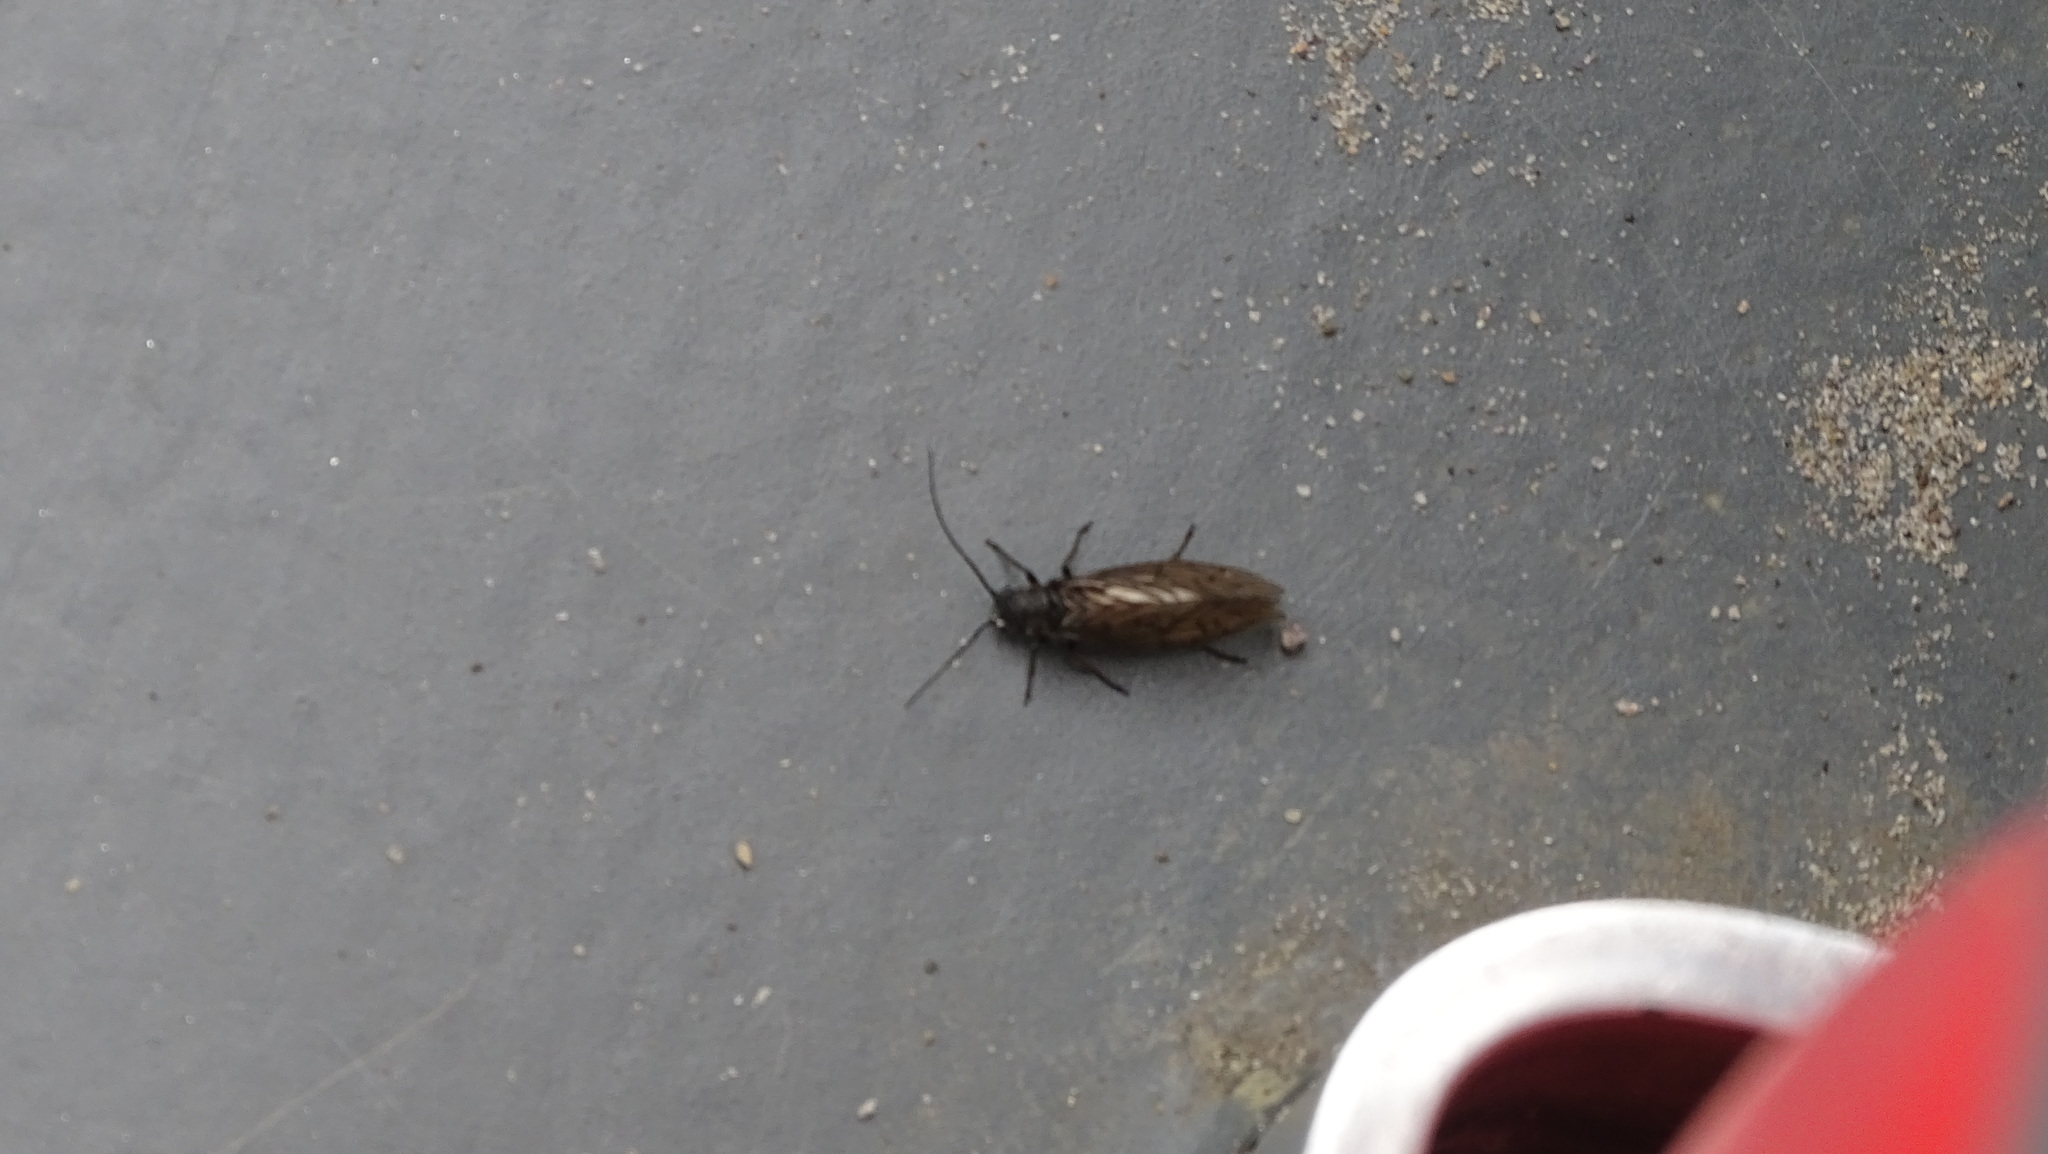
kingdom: Animalia
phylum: Arthropoda
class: Insecta
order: Megaloptera
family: Sialidae
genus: Sialis
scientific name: Sialis
